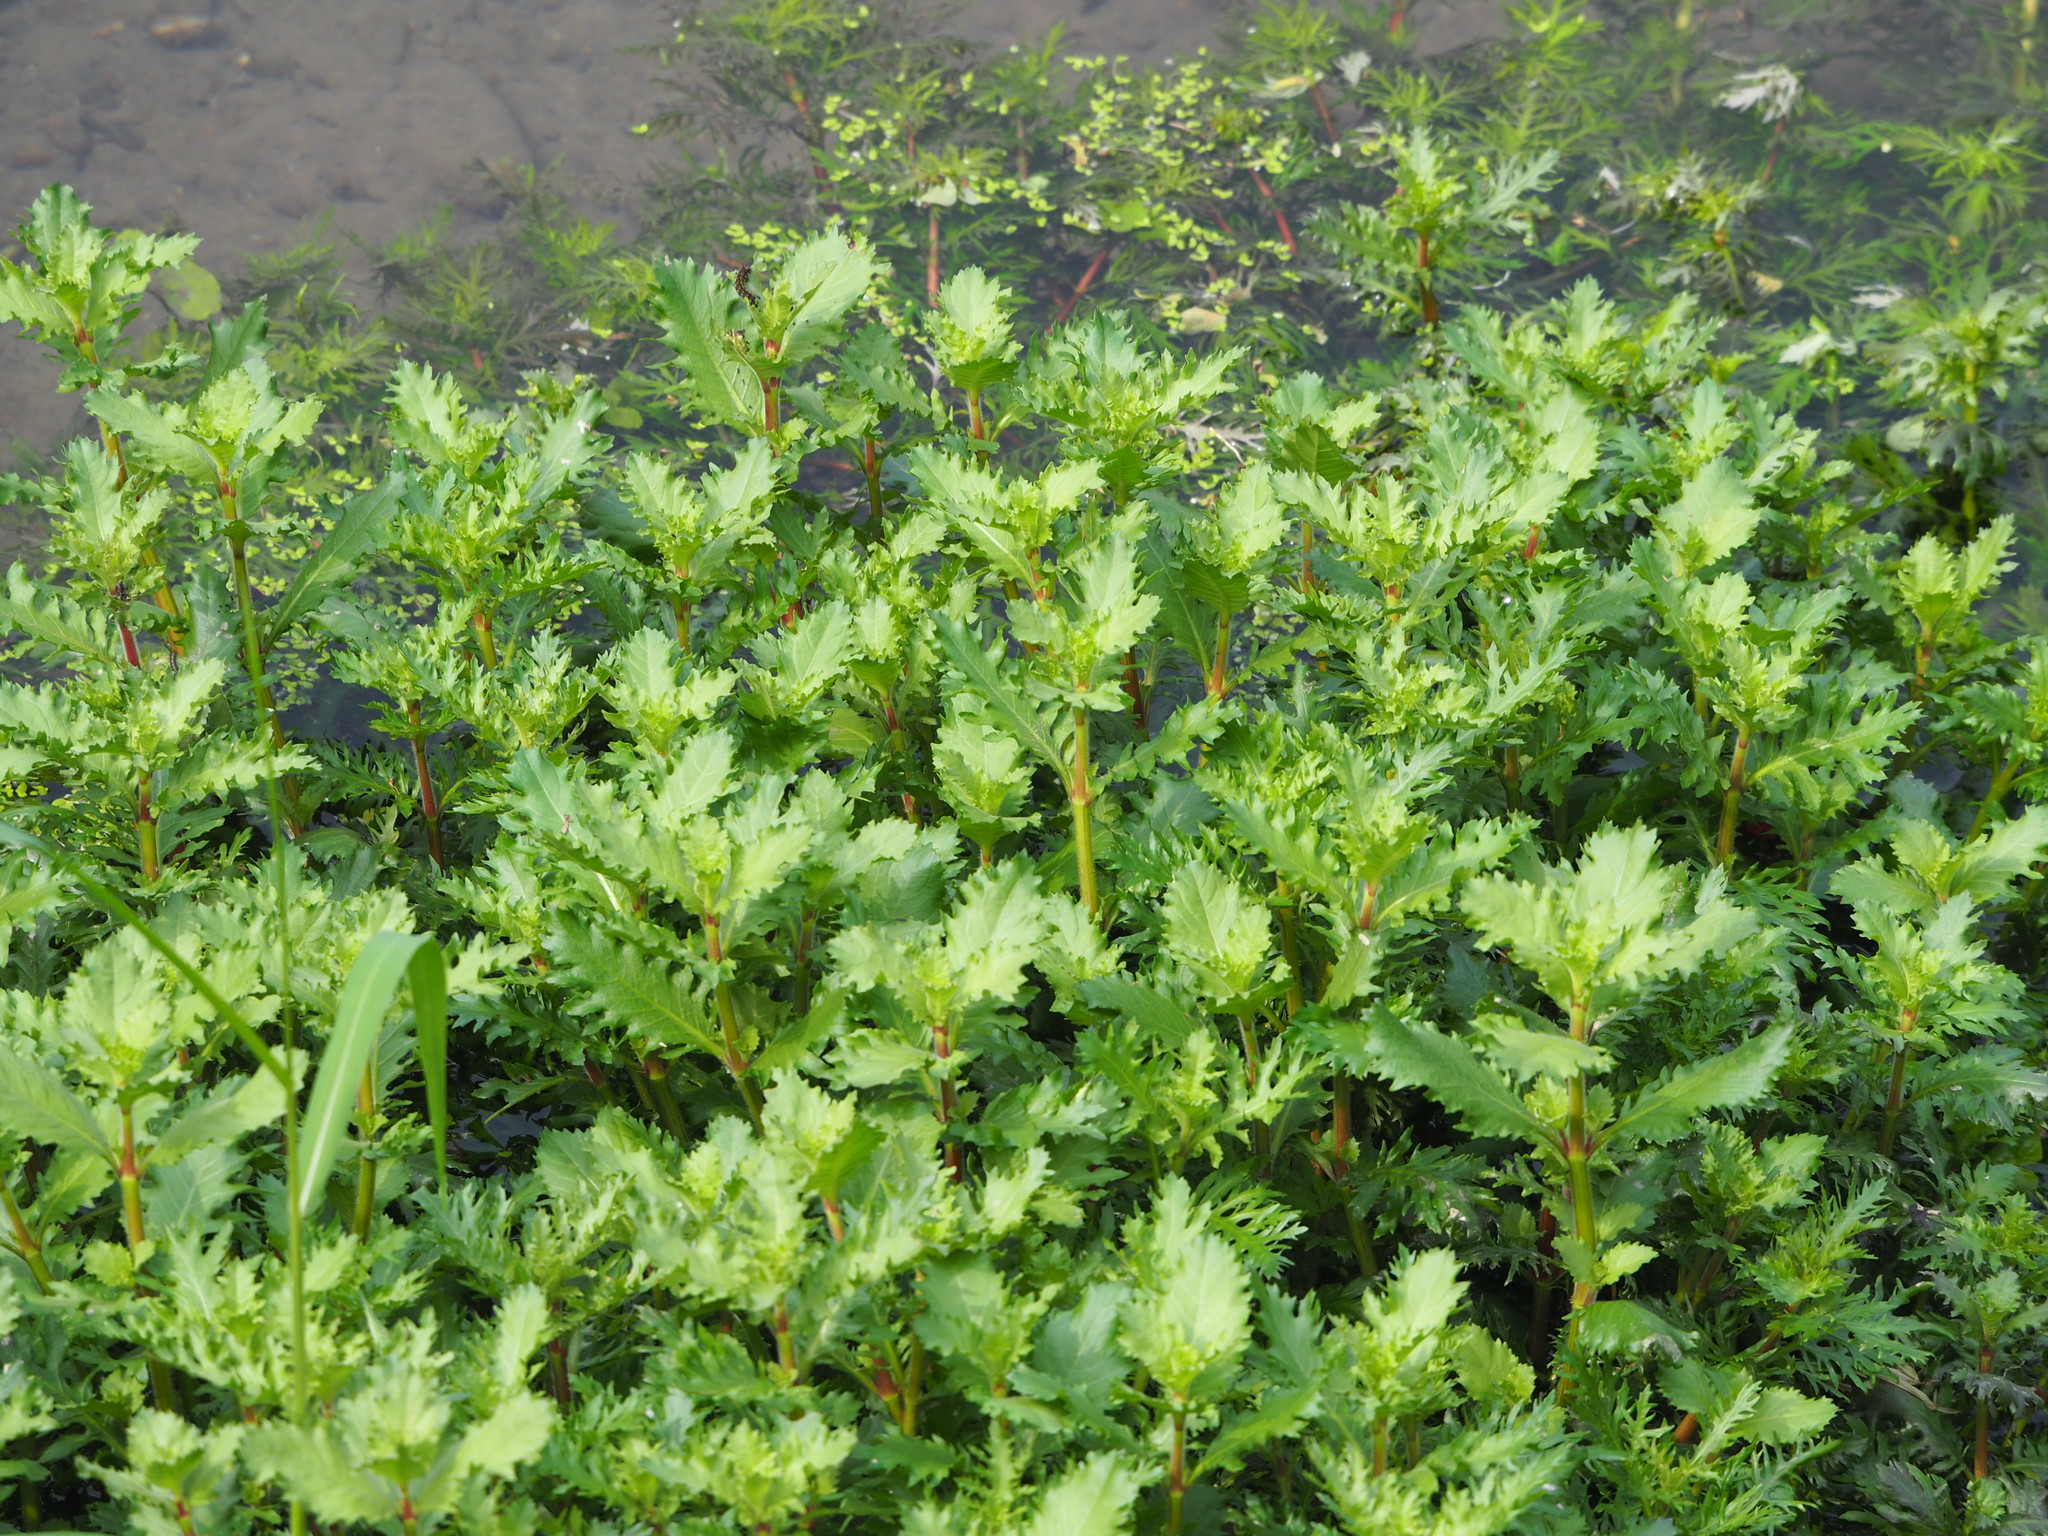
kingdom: Plantae
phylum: Tracheophyta
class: Magnoliopsida
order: Lamiales
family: Acanthaceae
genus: Hygrophila
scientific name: Hygrophila difformis
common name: Water-wisteria
